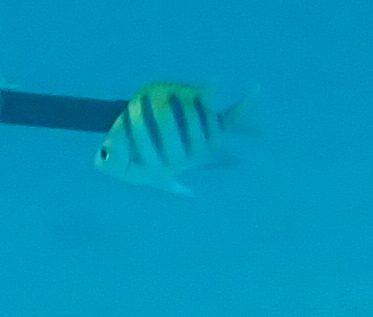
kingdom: Animalia
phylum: Chordata
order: Perciformes
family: Pomacentridae
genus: Abudefduf
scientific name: Abudefduf vaigiensis
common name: Indo-pacific sergeant
